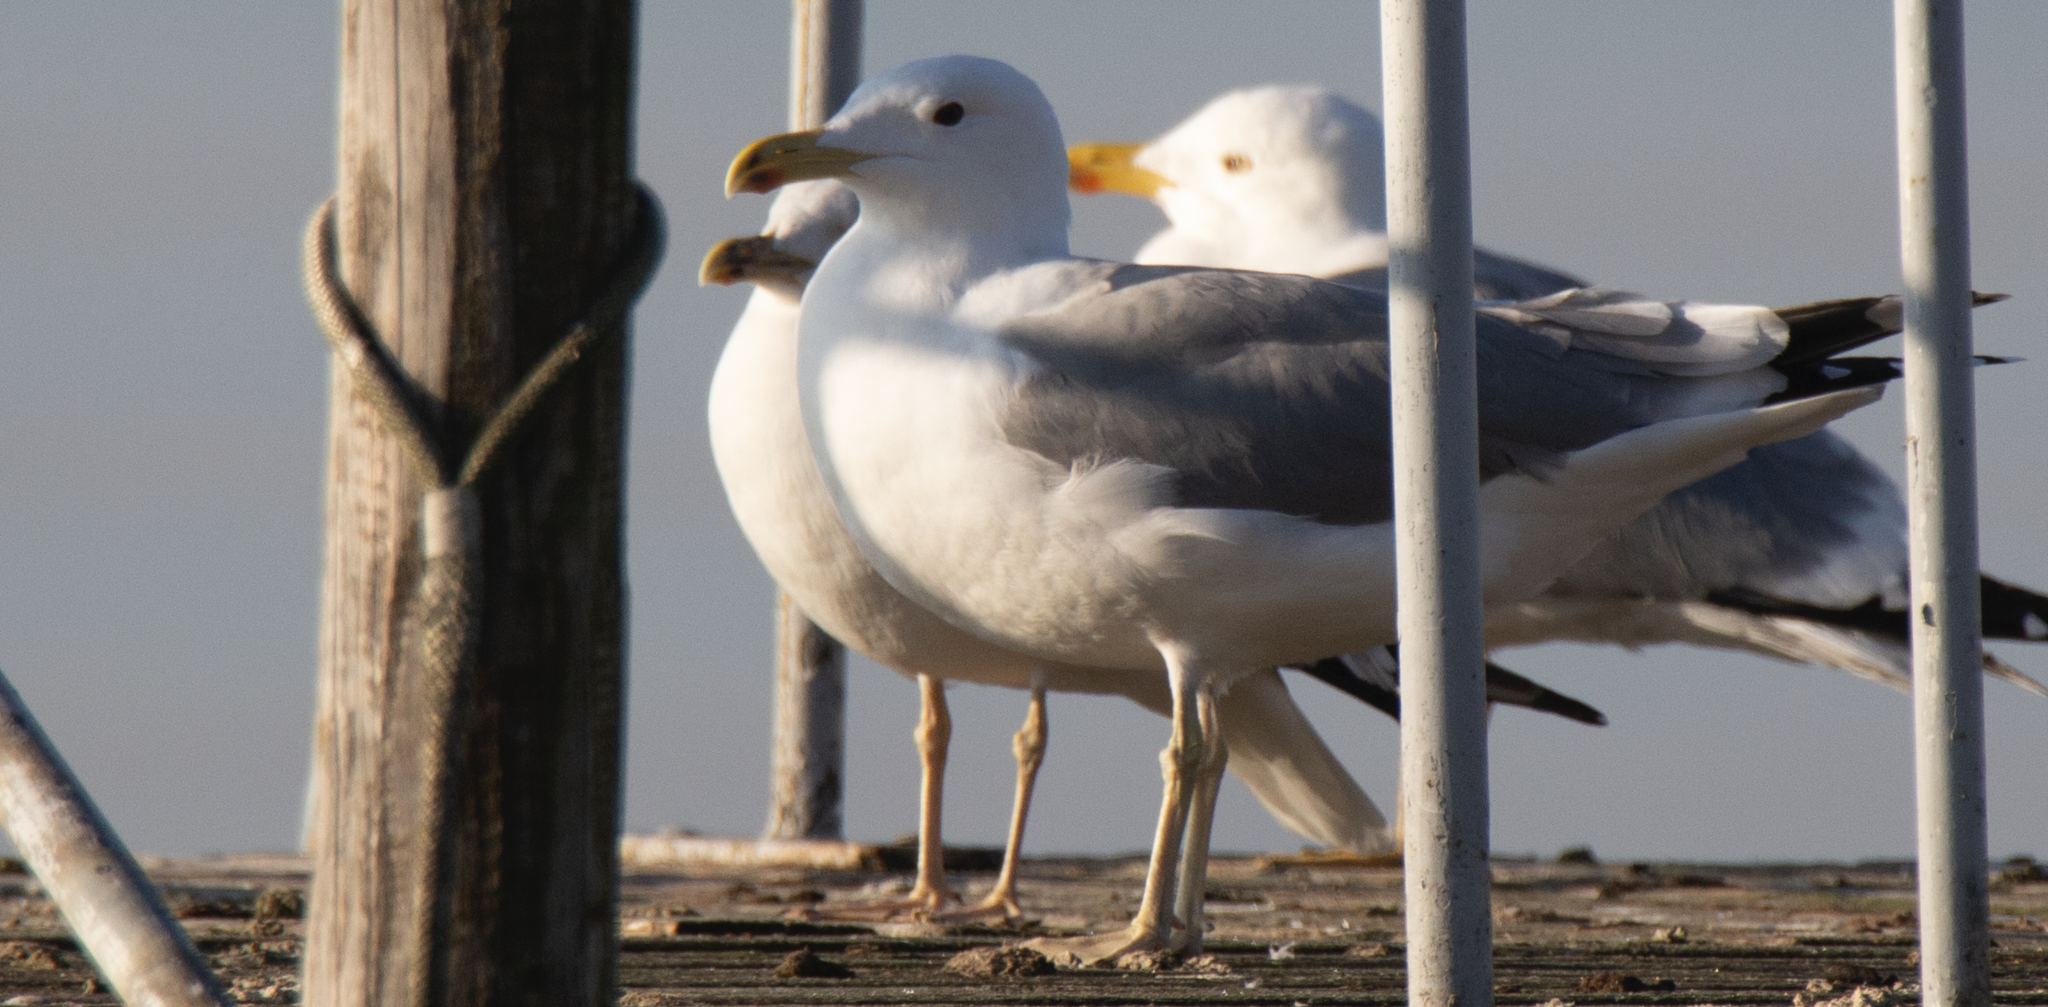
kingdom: Animalia
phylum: Chordata
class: Aves
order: Charadriiformes
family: Laridae
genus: Larus
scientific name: Larus cachinnans
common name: Caspian gull
